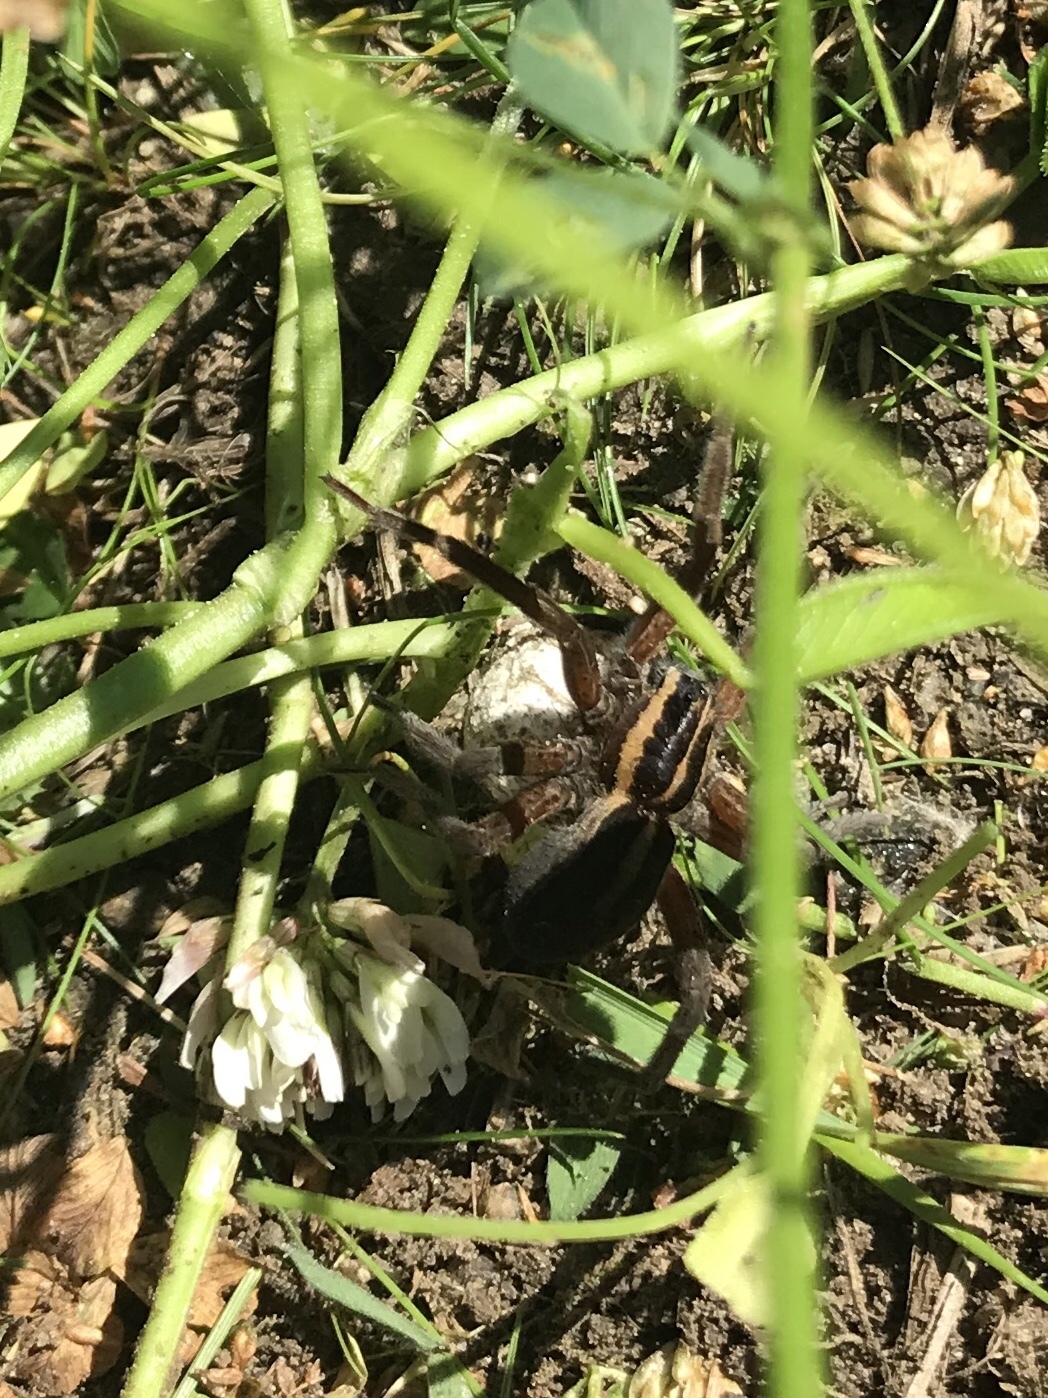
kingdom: Animalia
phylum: Arthropoda
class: Arachnida
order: Araneae
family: Pisauridae
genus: Dolomedes
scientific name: Dolomedes minor
